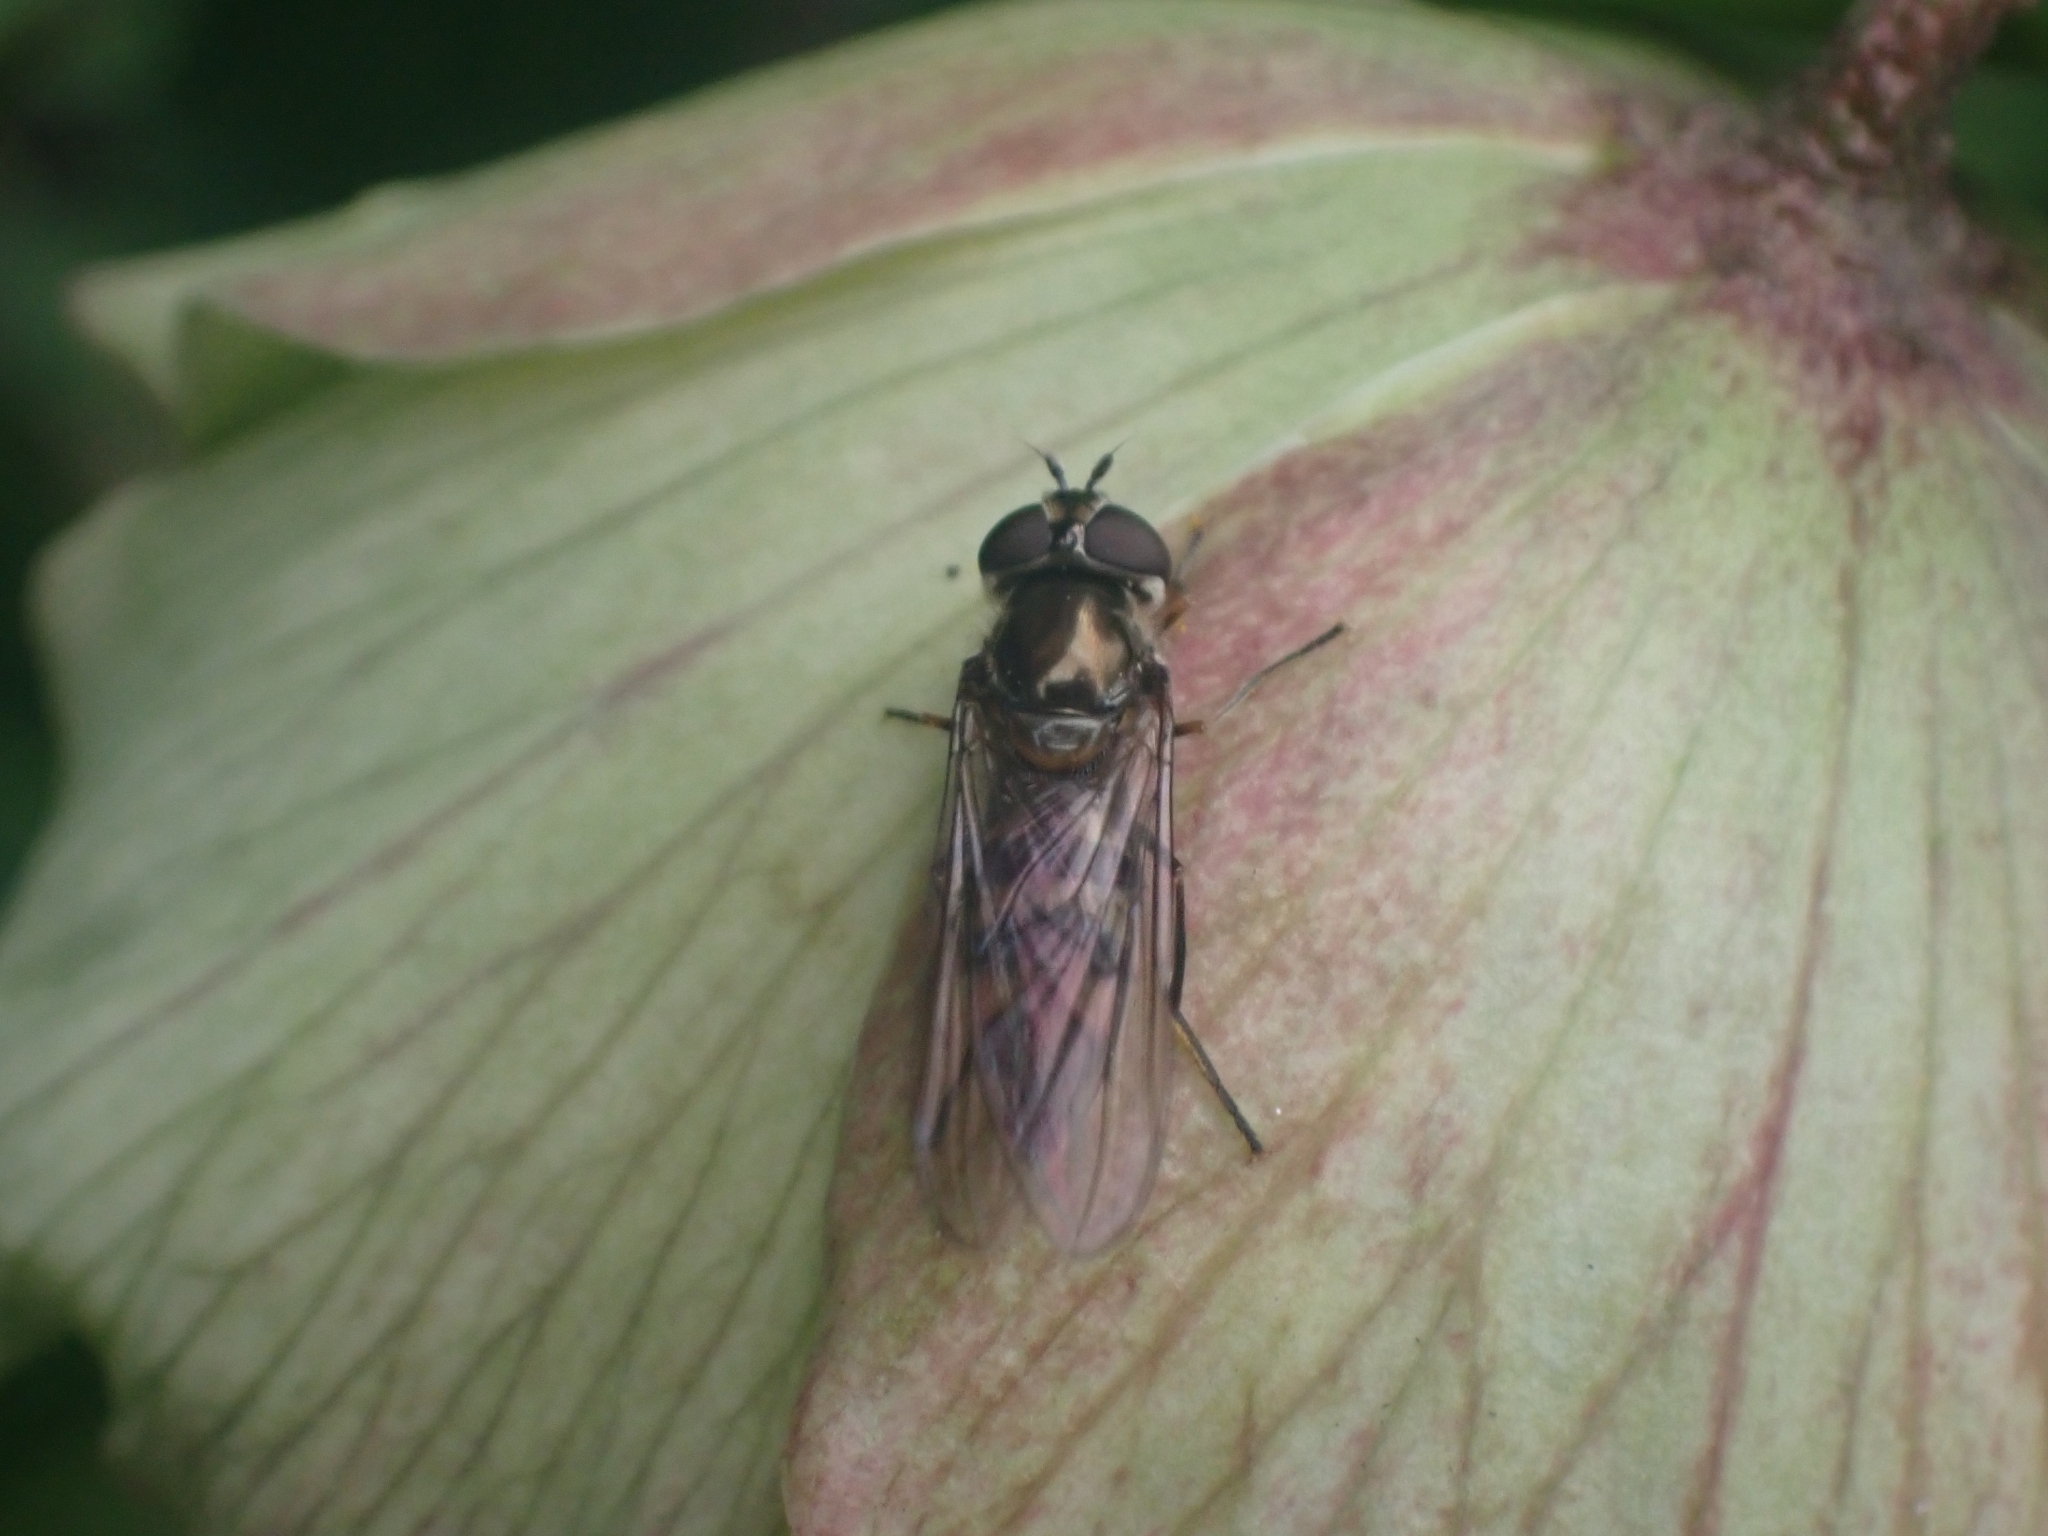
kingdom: Animalia
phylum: Arthropoda
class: Insecta
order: Diptera
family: Syrphidae
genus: Meliscaeva
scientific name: Meliscaeva auricollis
